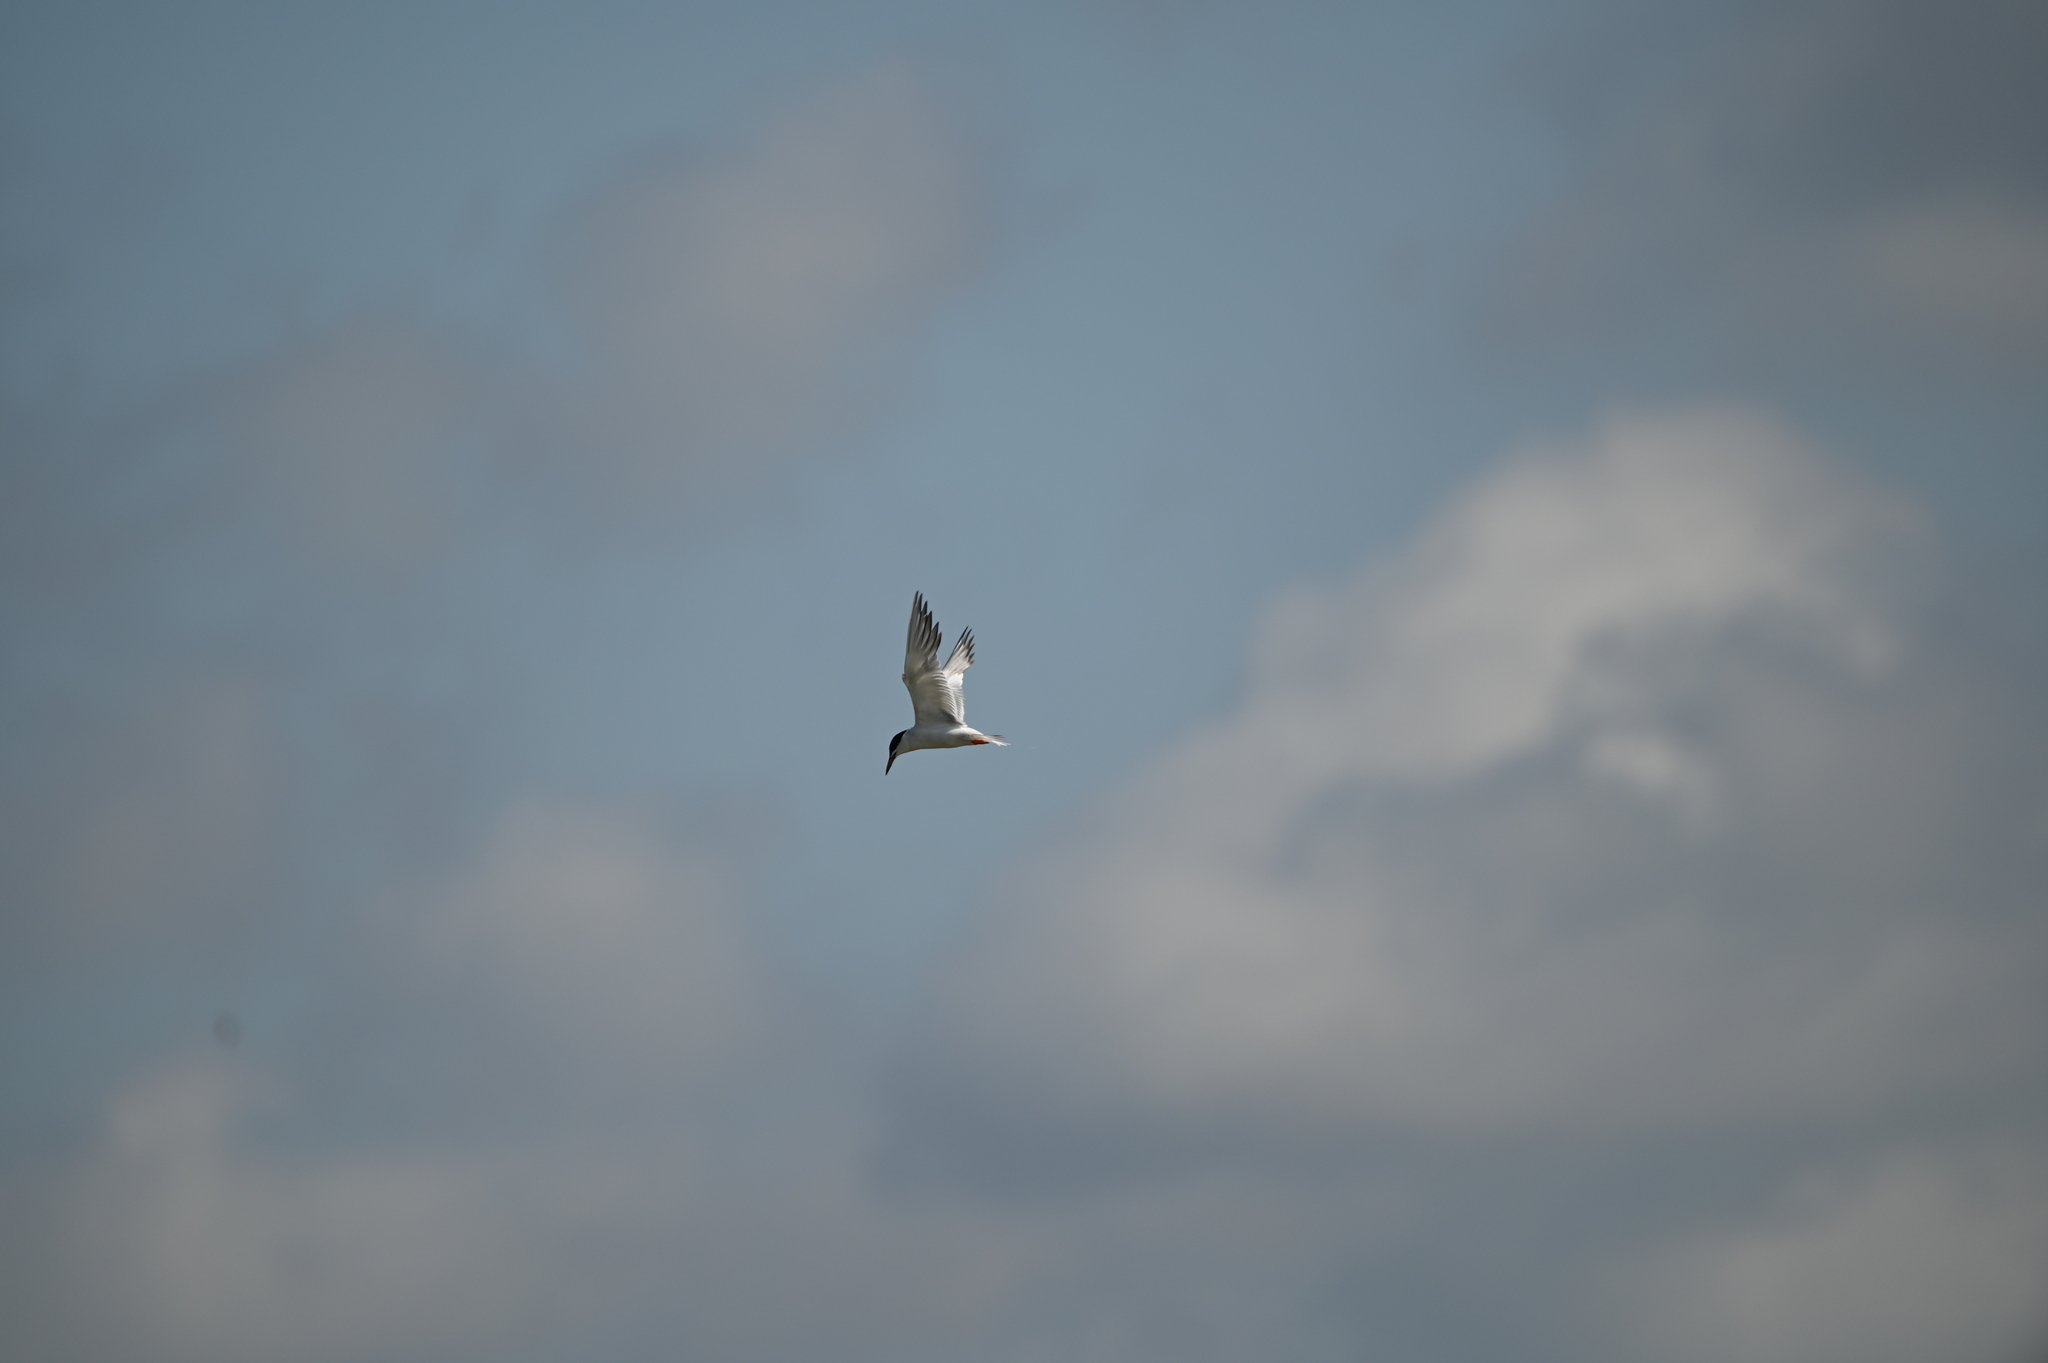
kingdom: Animalia
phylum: Chordata
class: Aves
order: Charadriiformes
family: Laridae
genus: Sterna
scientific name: Sterna forsteri
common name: Forster's tern
